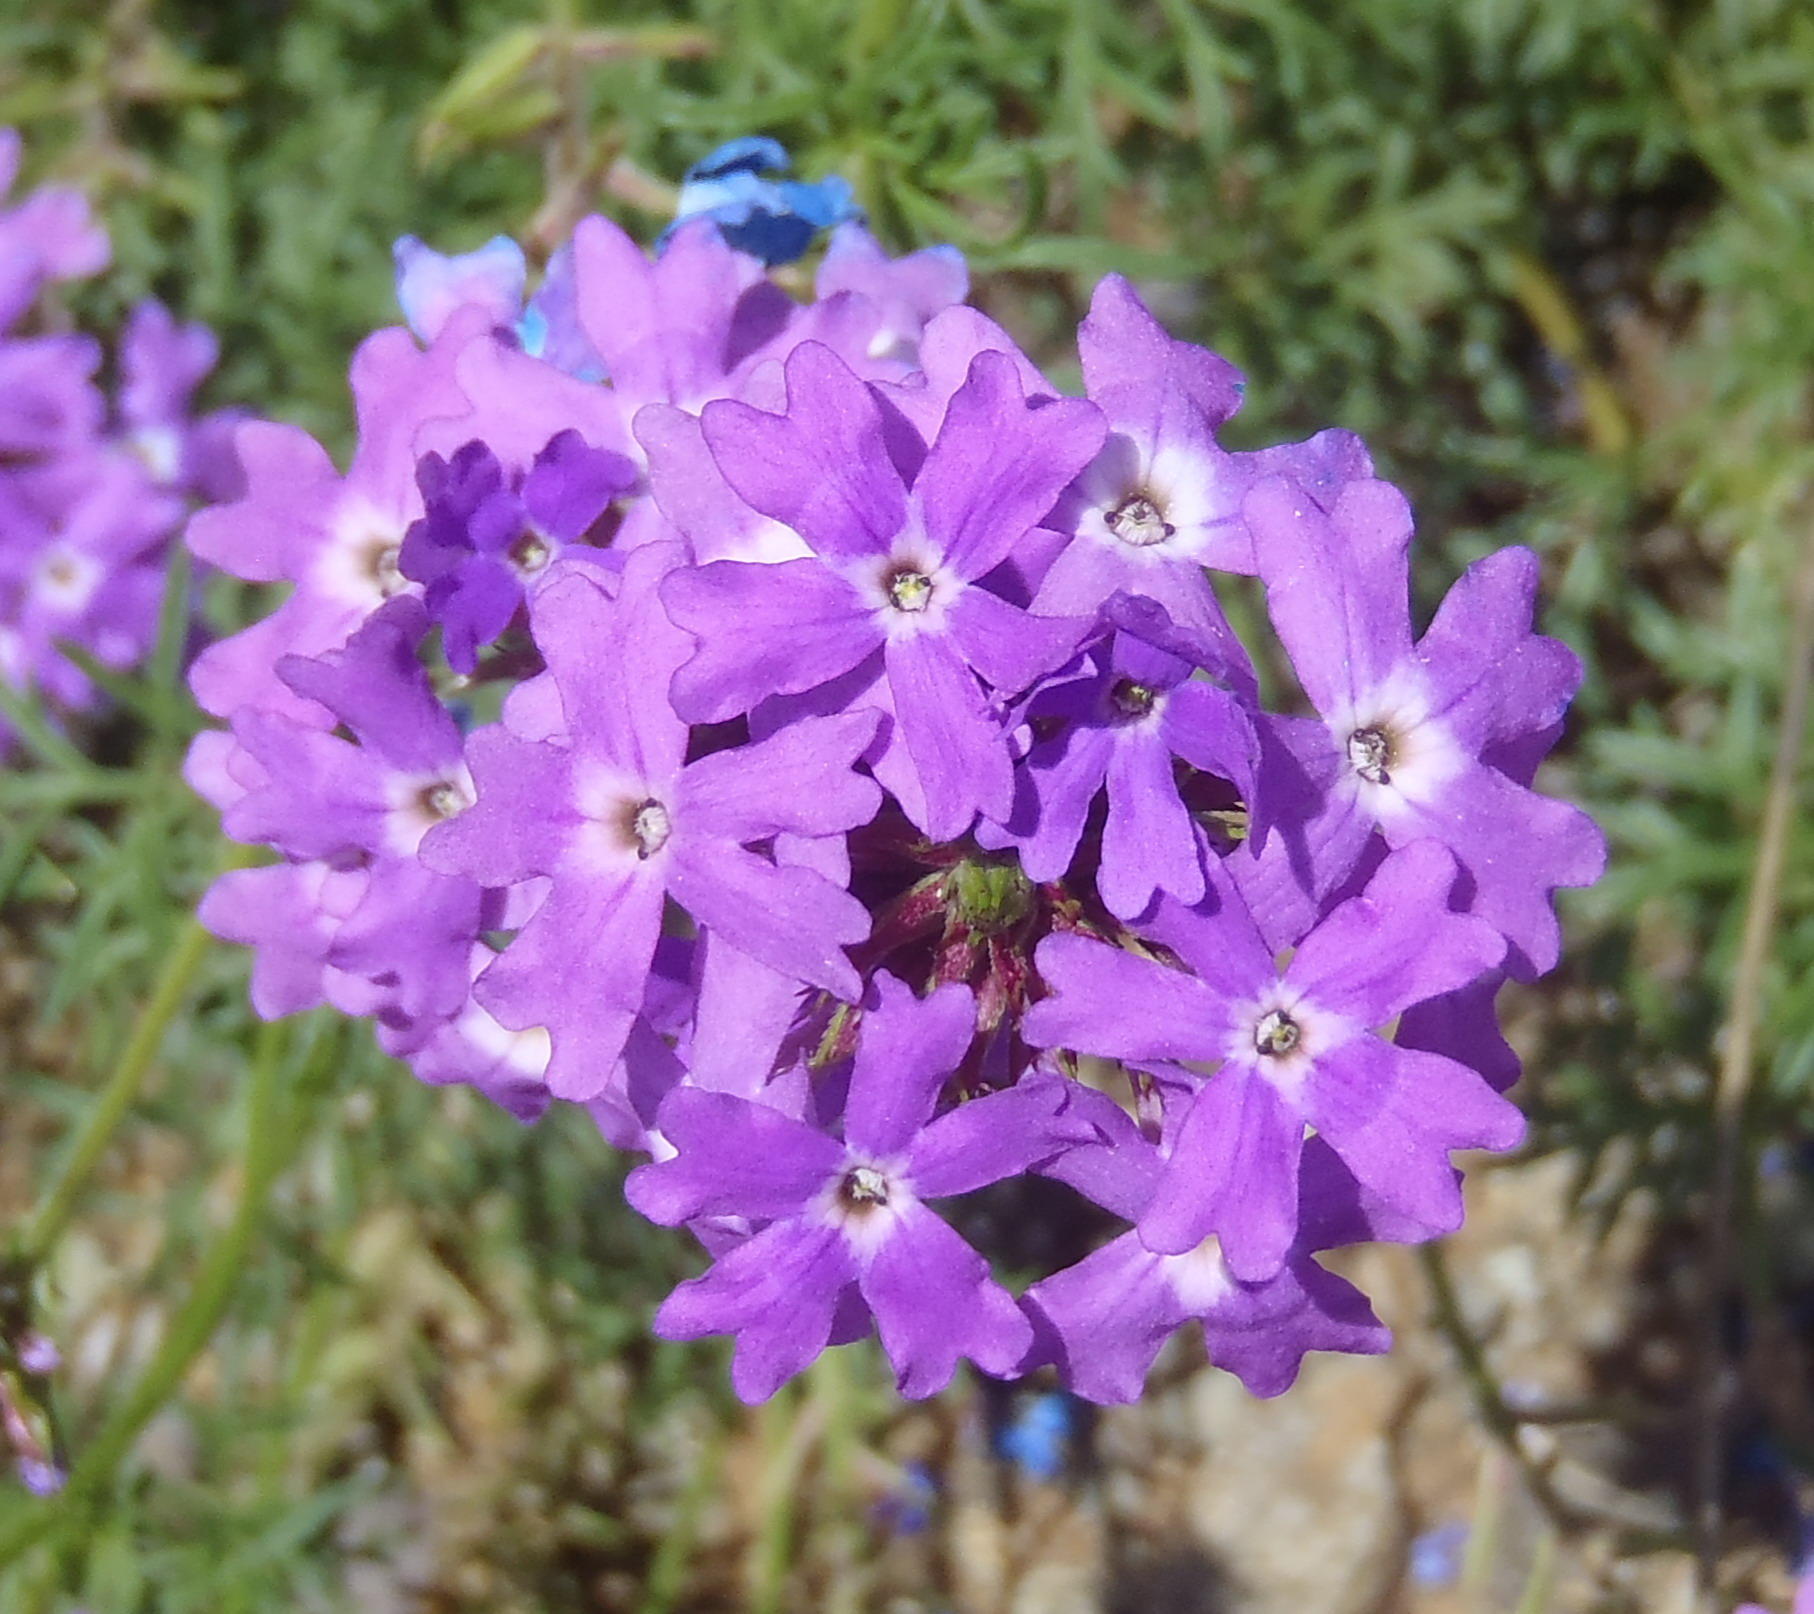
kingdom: Plantae
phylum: Tracheophyta
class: Magnoliopsida
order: Lamiales
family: Verbenaceae
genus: Verbena
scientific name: Verbena aristigera
